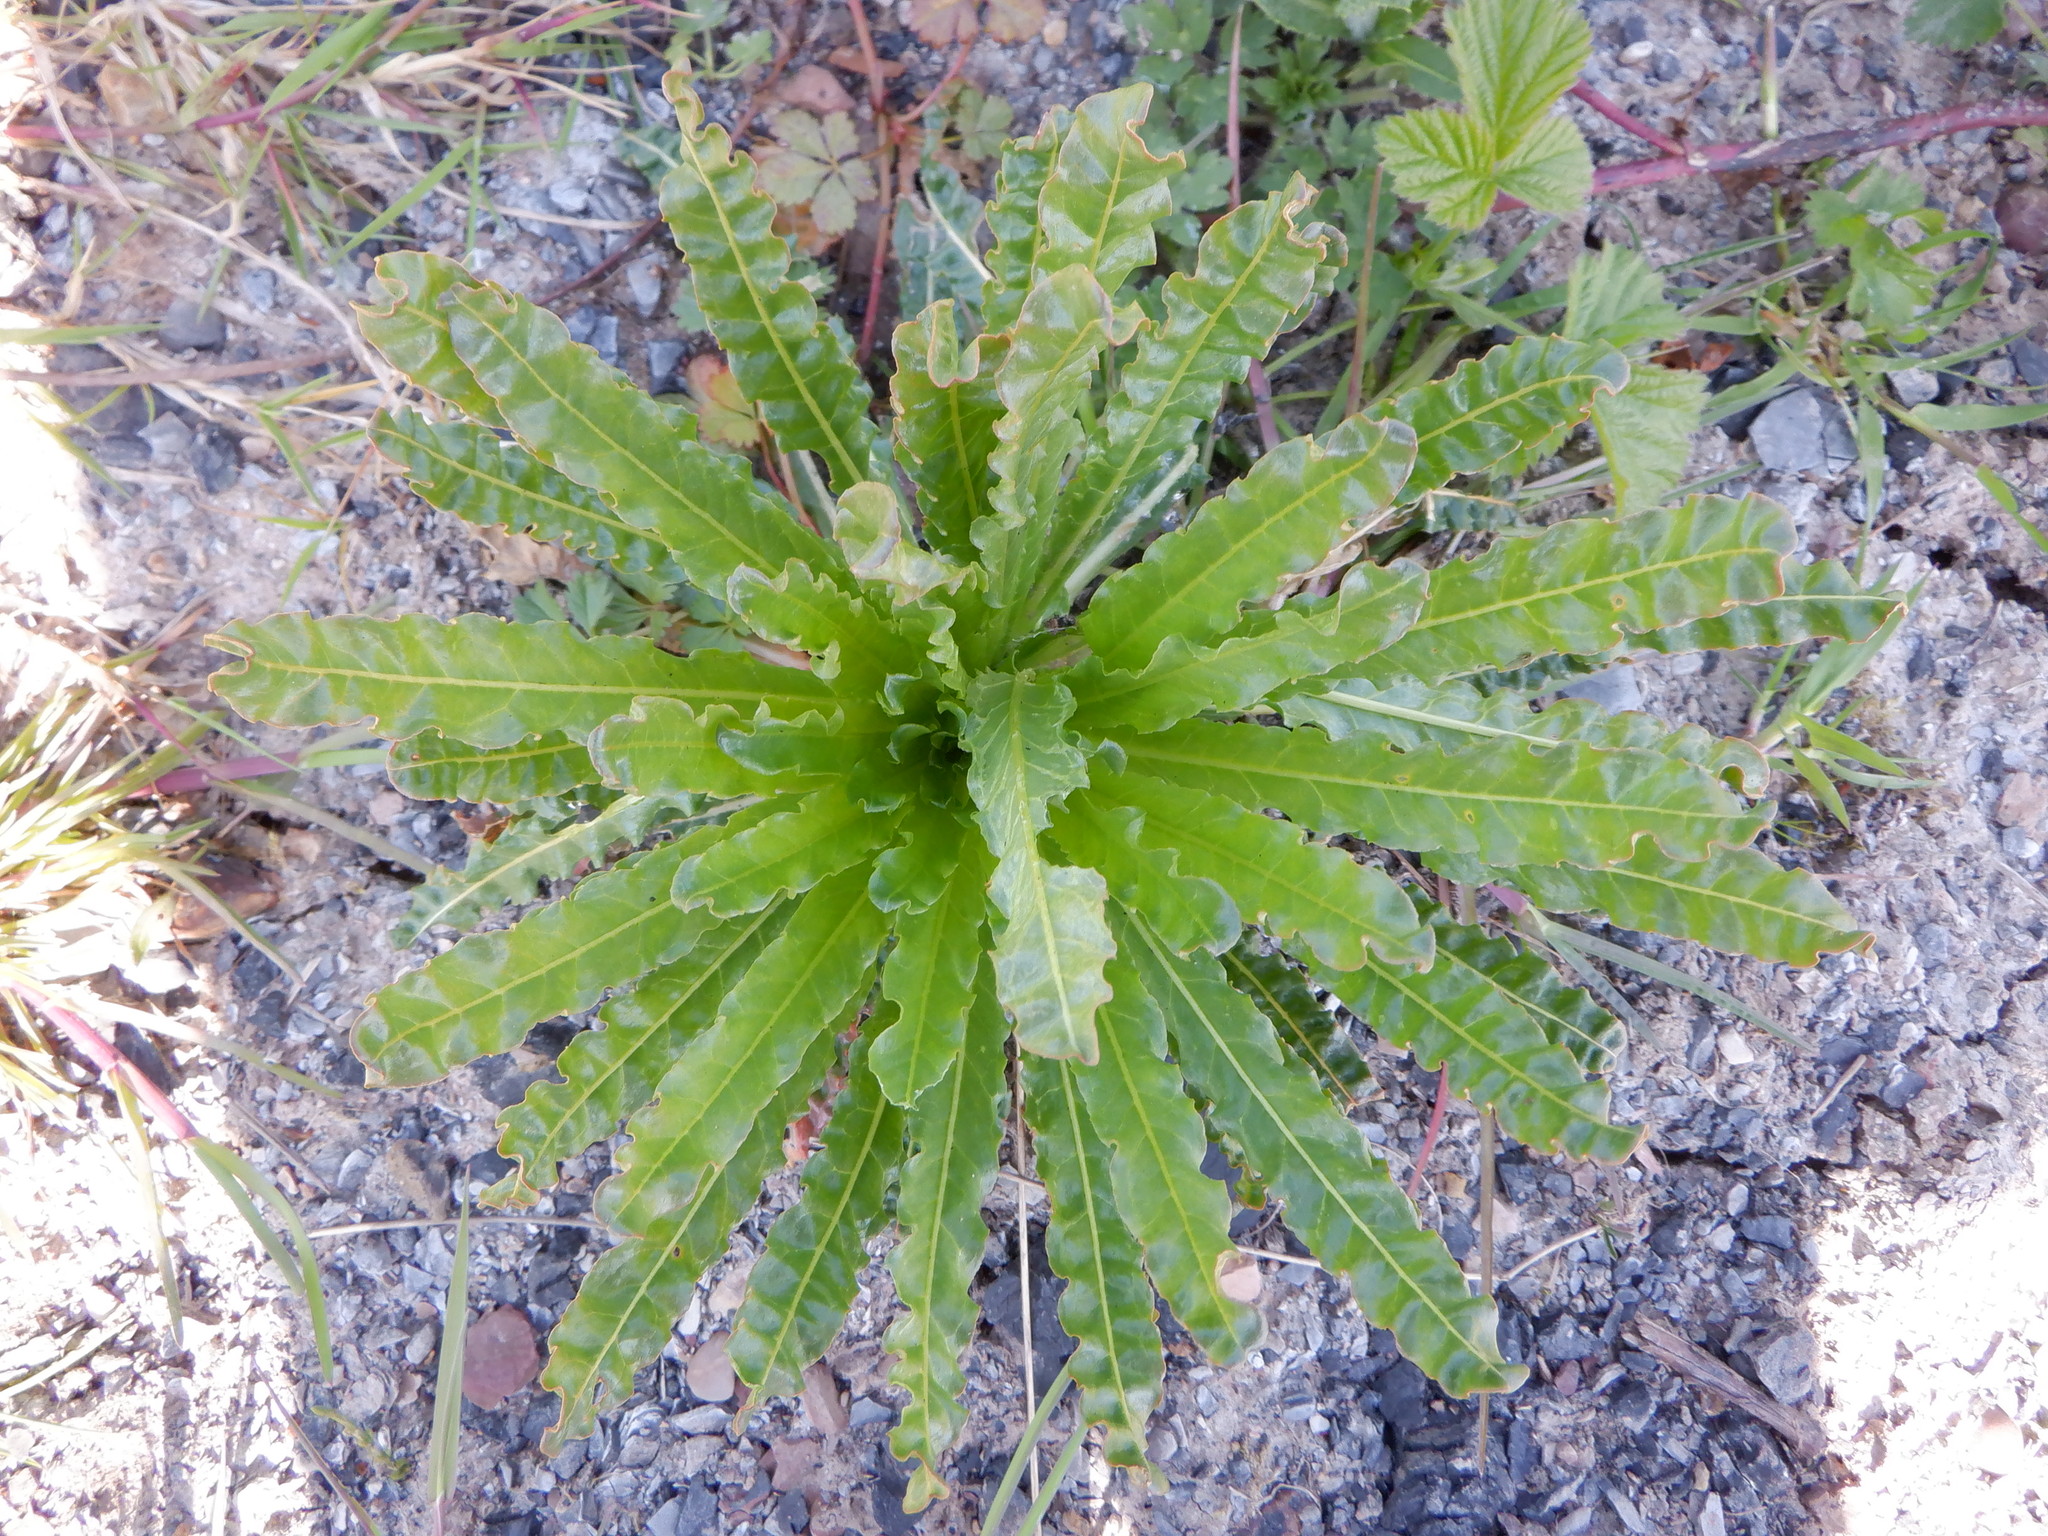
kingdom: Plantae
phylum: Tracheophyta
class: Magnoliopsida
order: Brassicales
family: Resedaceae
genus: Reseda
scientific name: Reseda luteola
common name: Weld
